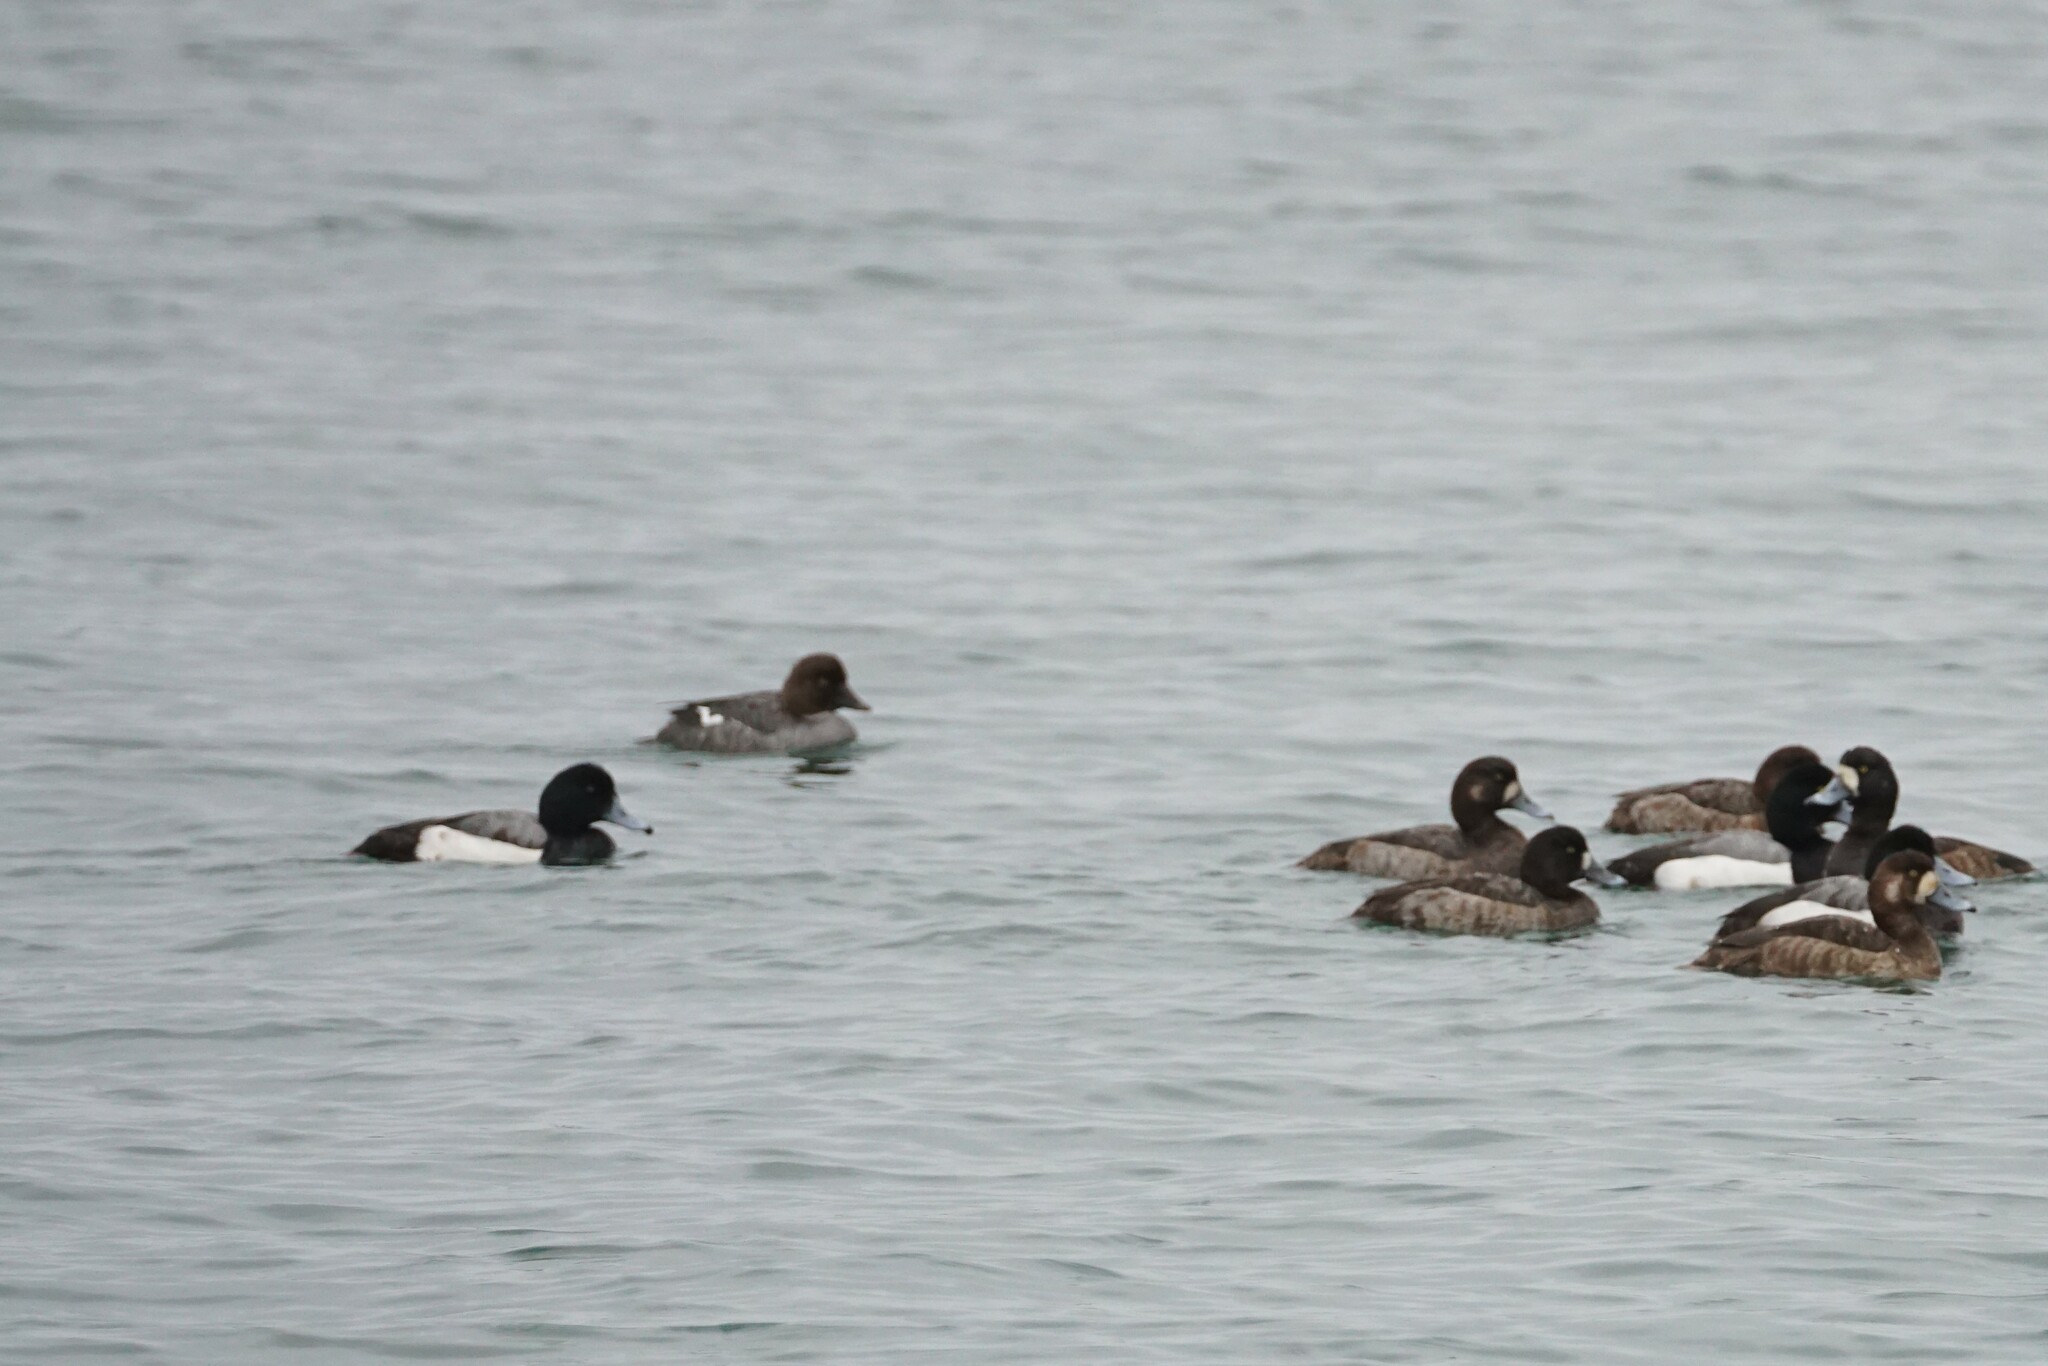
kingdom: Animalia
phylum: Chordata
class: Aves
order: Anseriformes
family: Anatidae
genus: Bucephala
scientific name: Bucephala clangula
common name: Common goldeneye
